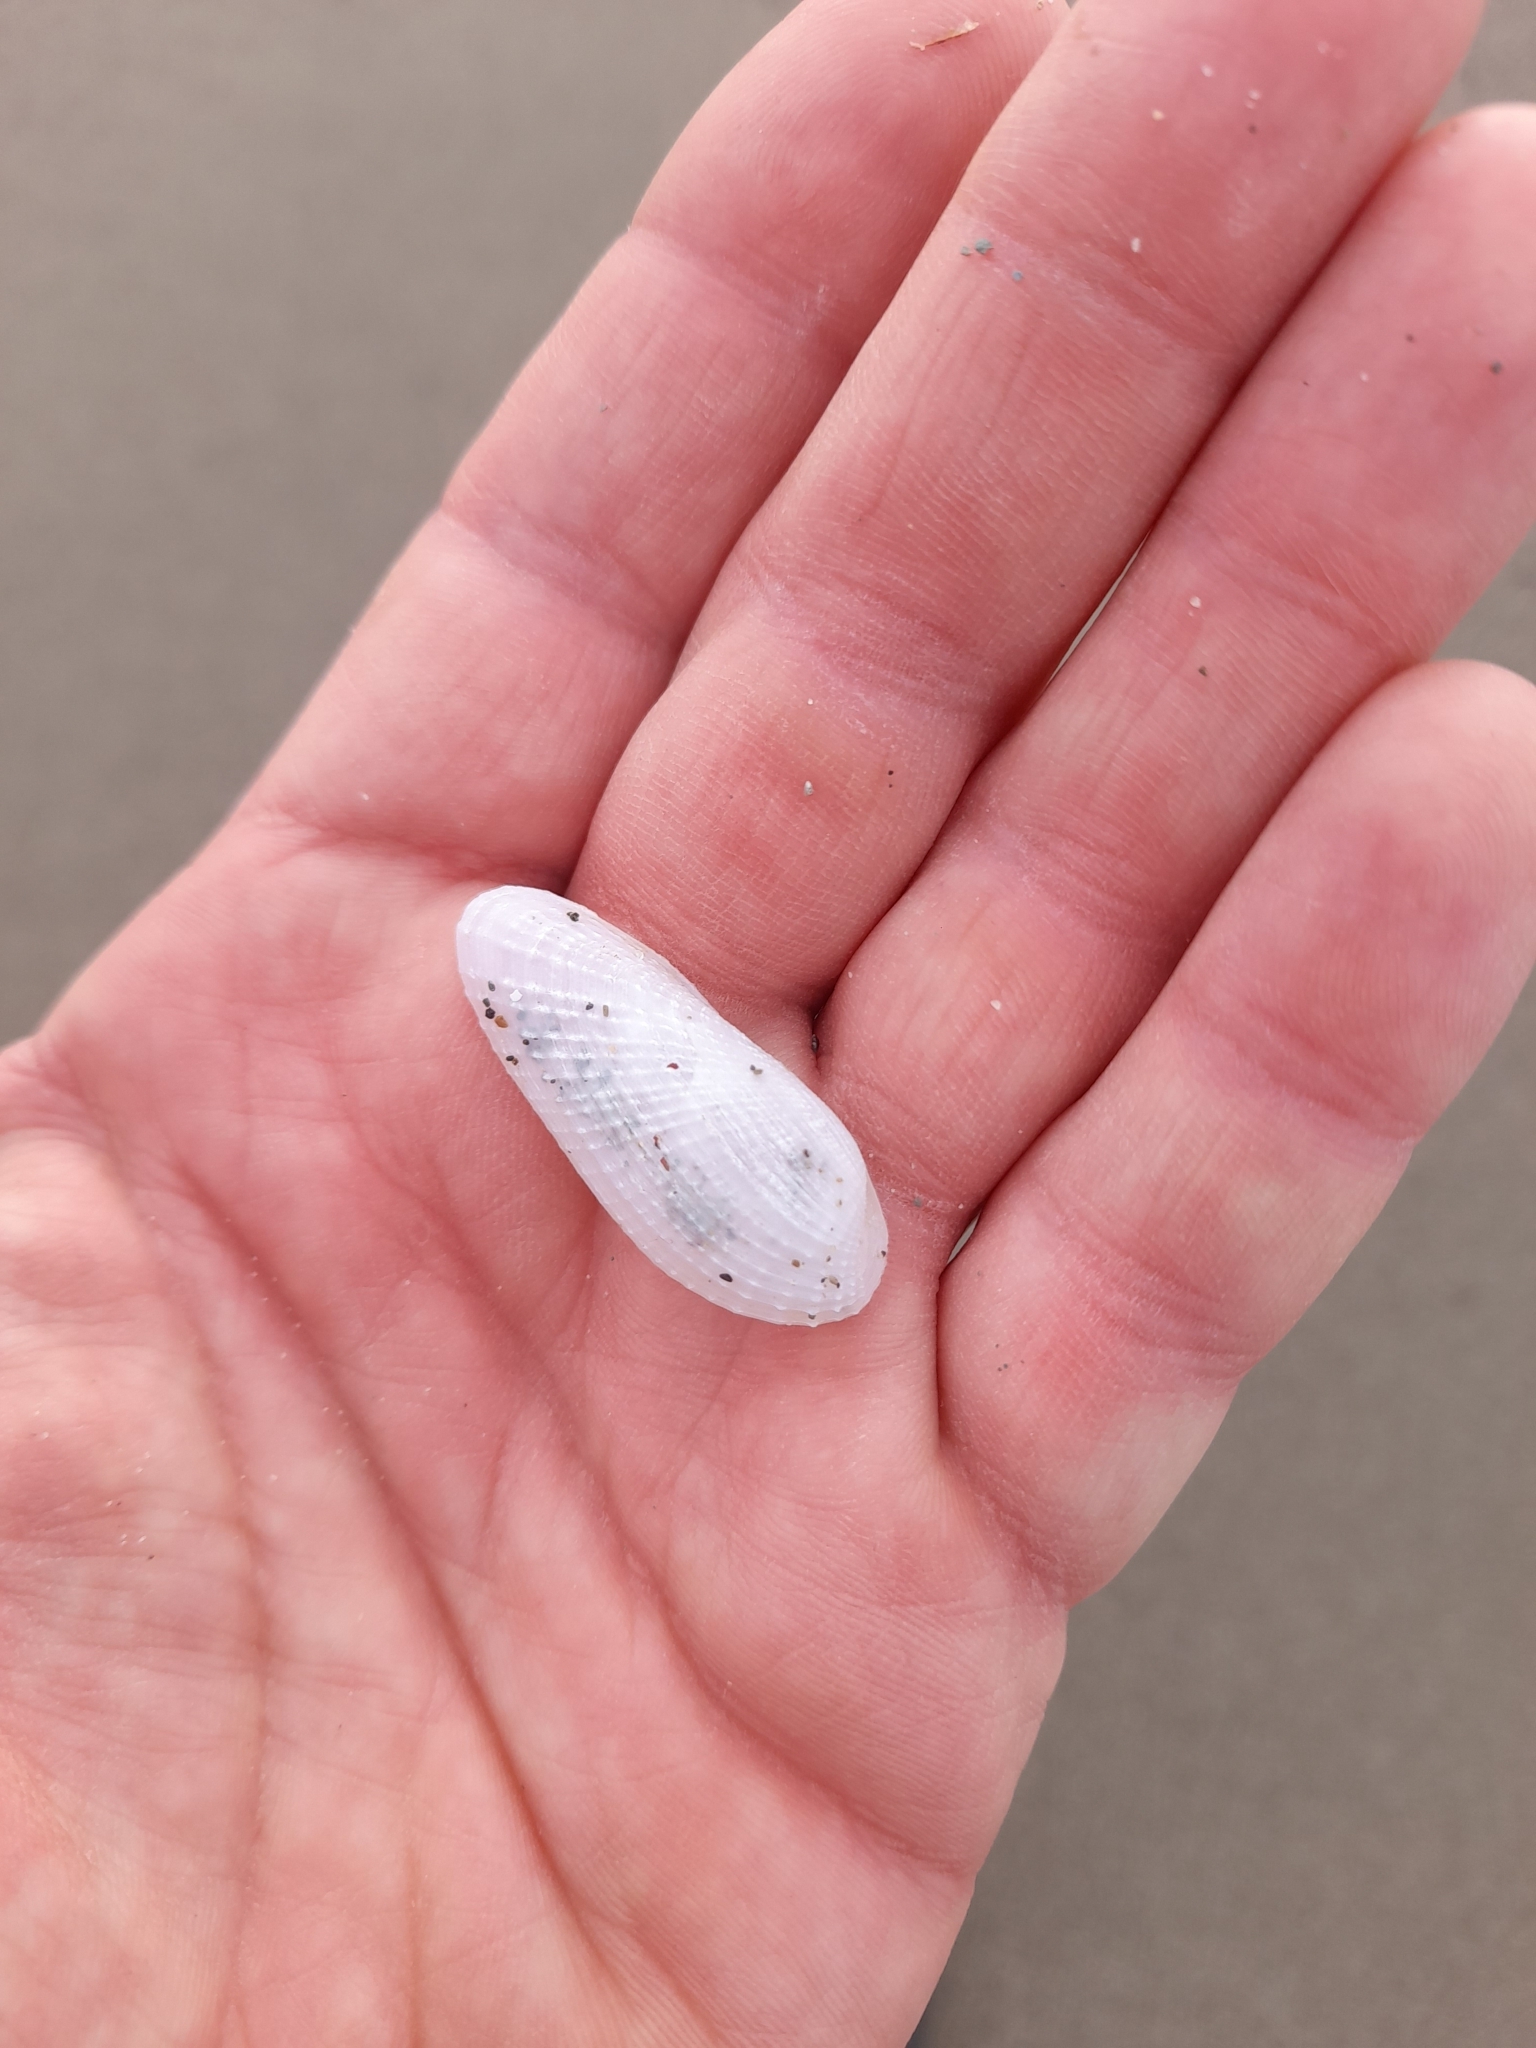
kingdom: Animalia
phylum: Mollusca
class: Bivalvia
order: Myida
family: Pholadidae
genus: Barnea
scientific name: Barnea candida
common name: White piddock
